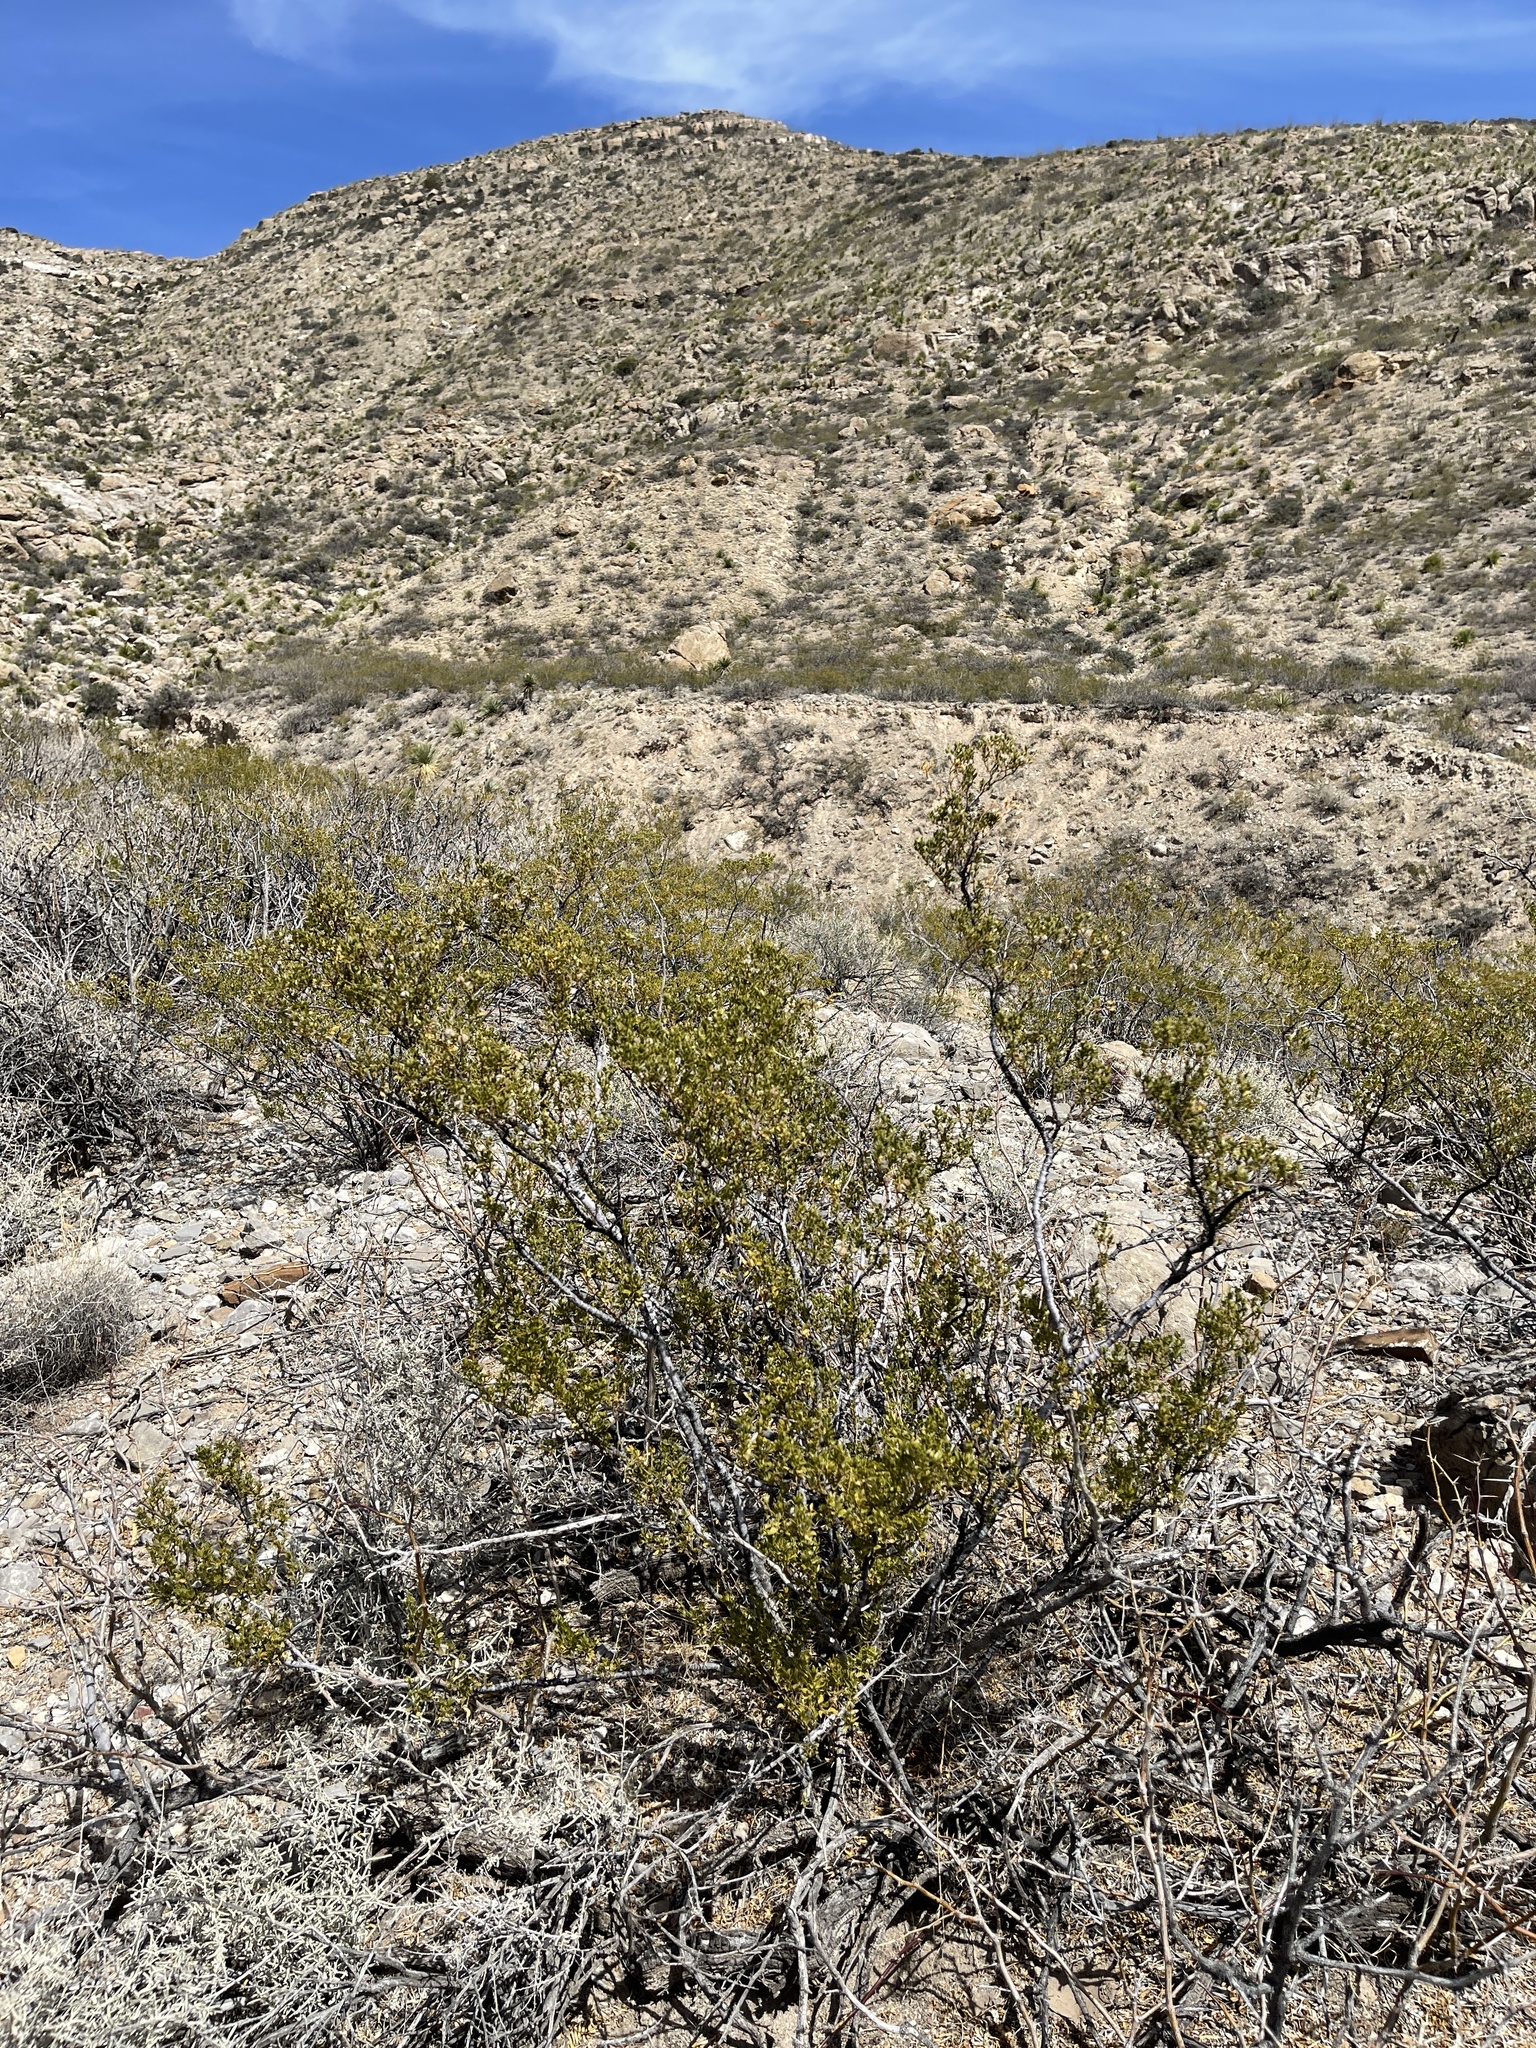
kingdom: Plantae
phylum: Tracheophyta
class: Magnoliopsida
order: Zygophyllales
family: Zygophyllaceae
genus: Larrea
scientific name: Larrea tridentata
